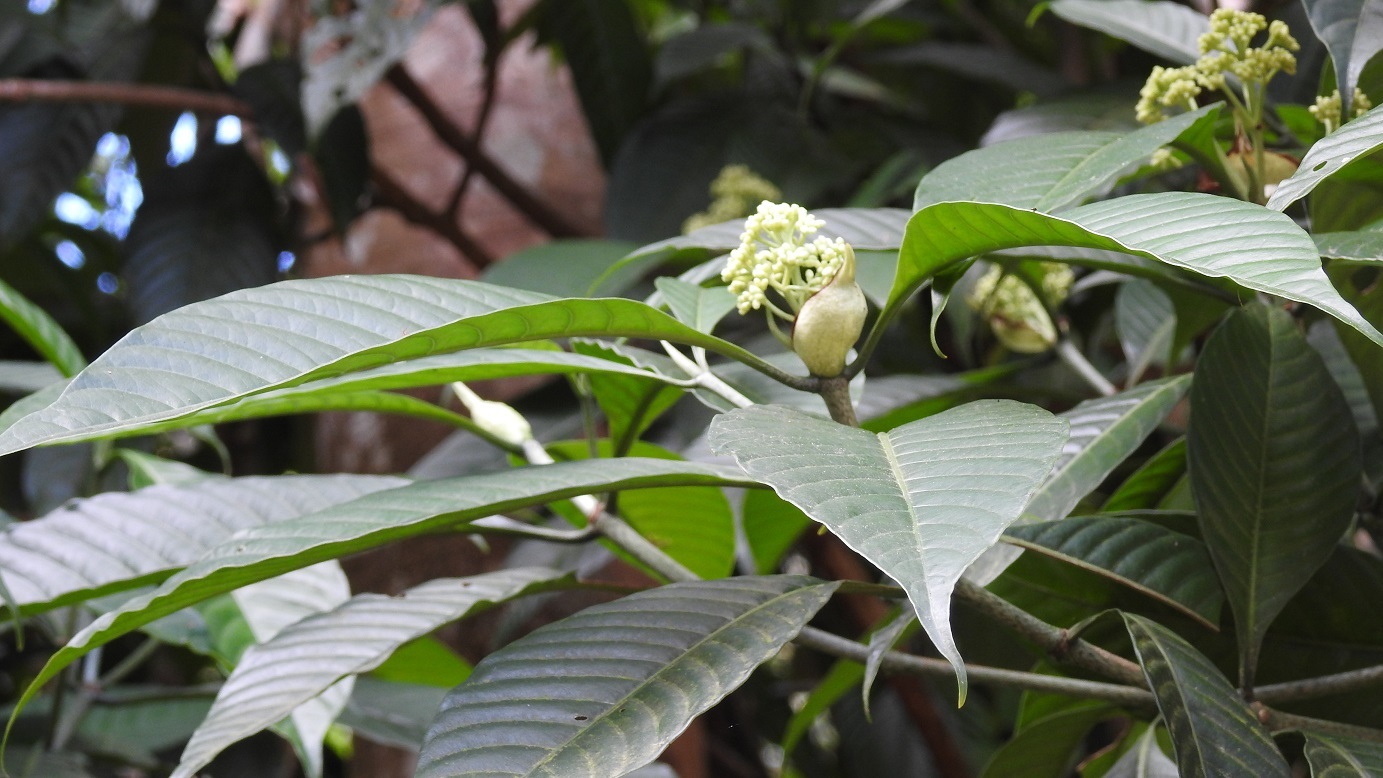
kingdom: Plantae
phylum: Tracheophyta
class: Magnoliopsida
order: Gentianales
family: Rubiaceae
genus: Psychotria
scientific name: Psychotria mexiae
